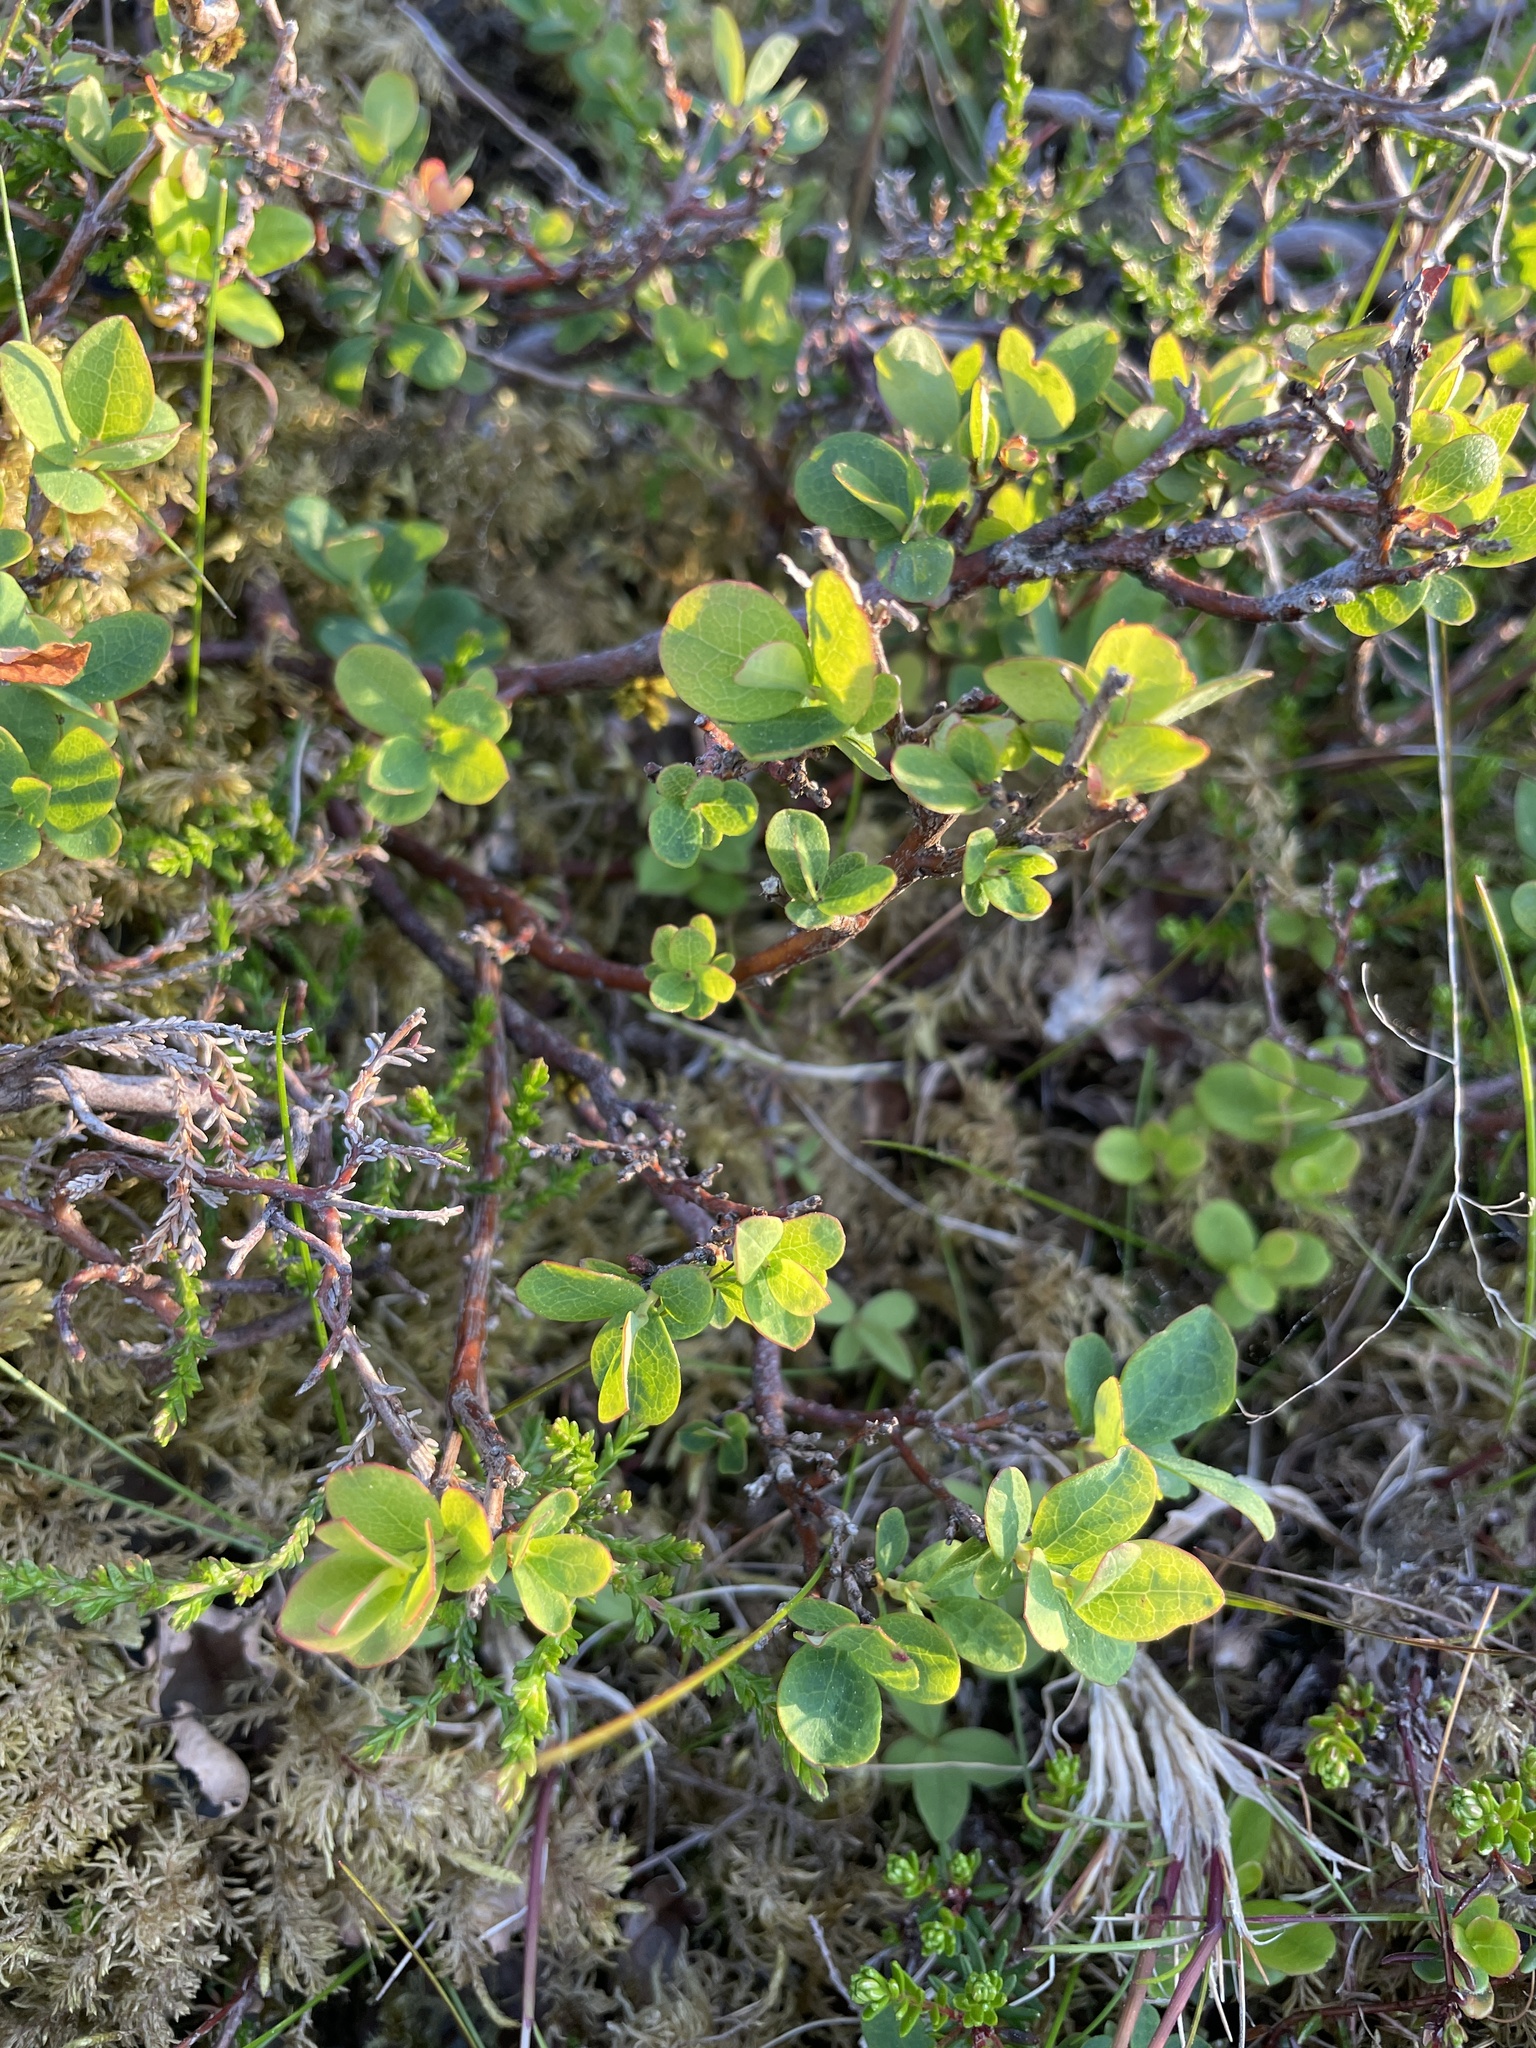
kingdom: Plantae
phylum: Tracheophyta
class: Magnoliopsida
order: Ericales
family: Ericaceae
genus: Vaccinium
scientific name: Vaccinium uliginosum
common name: Bog bilberry
